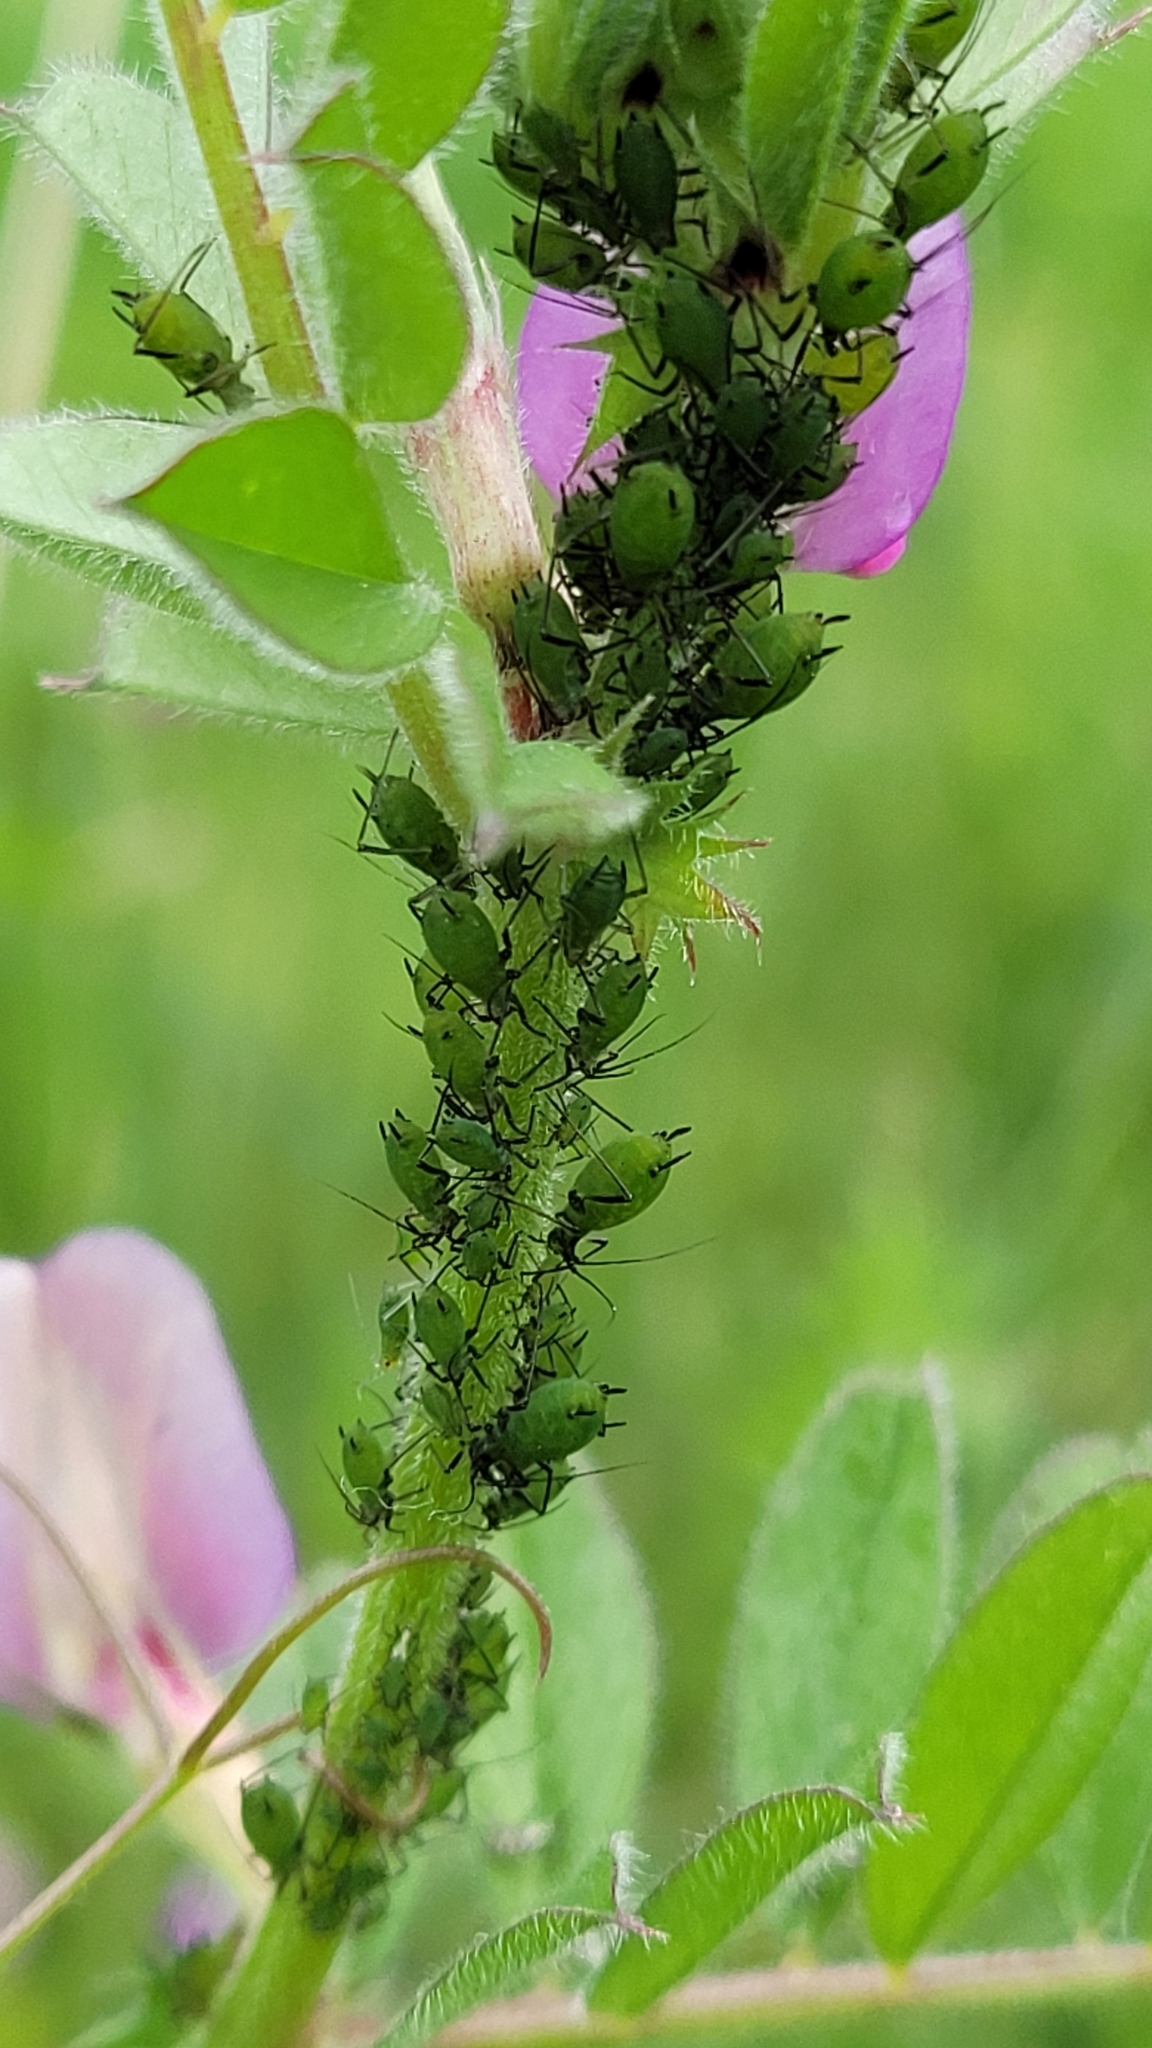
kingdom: Animalia
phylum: Arthropoda
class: Insecta
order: Hemiptera
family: Aphididae
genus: Megoura
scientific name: Megoura viciae
